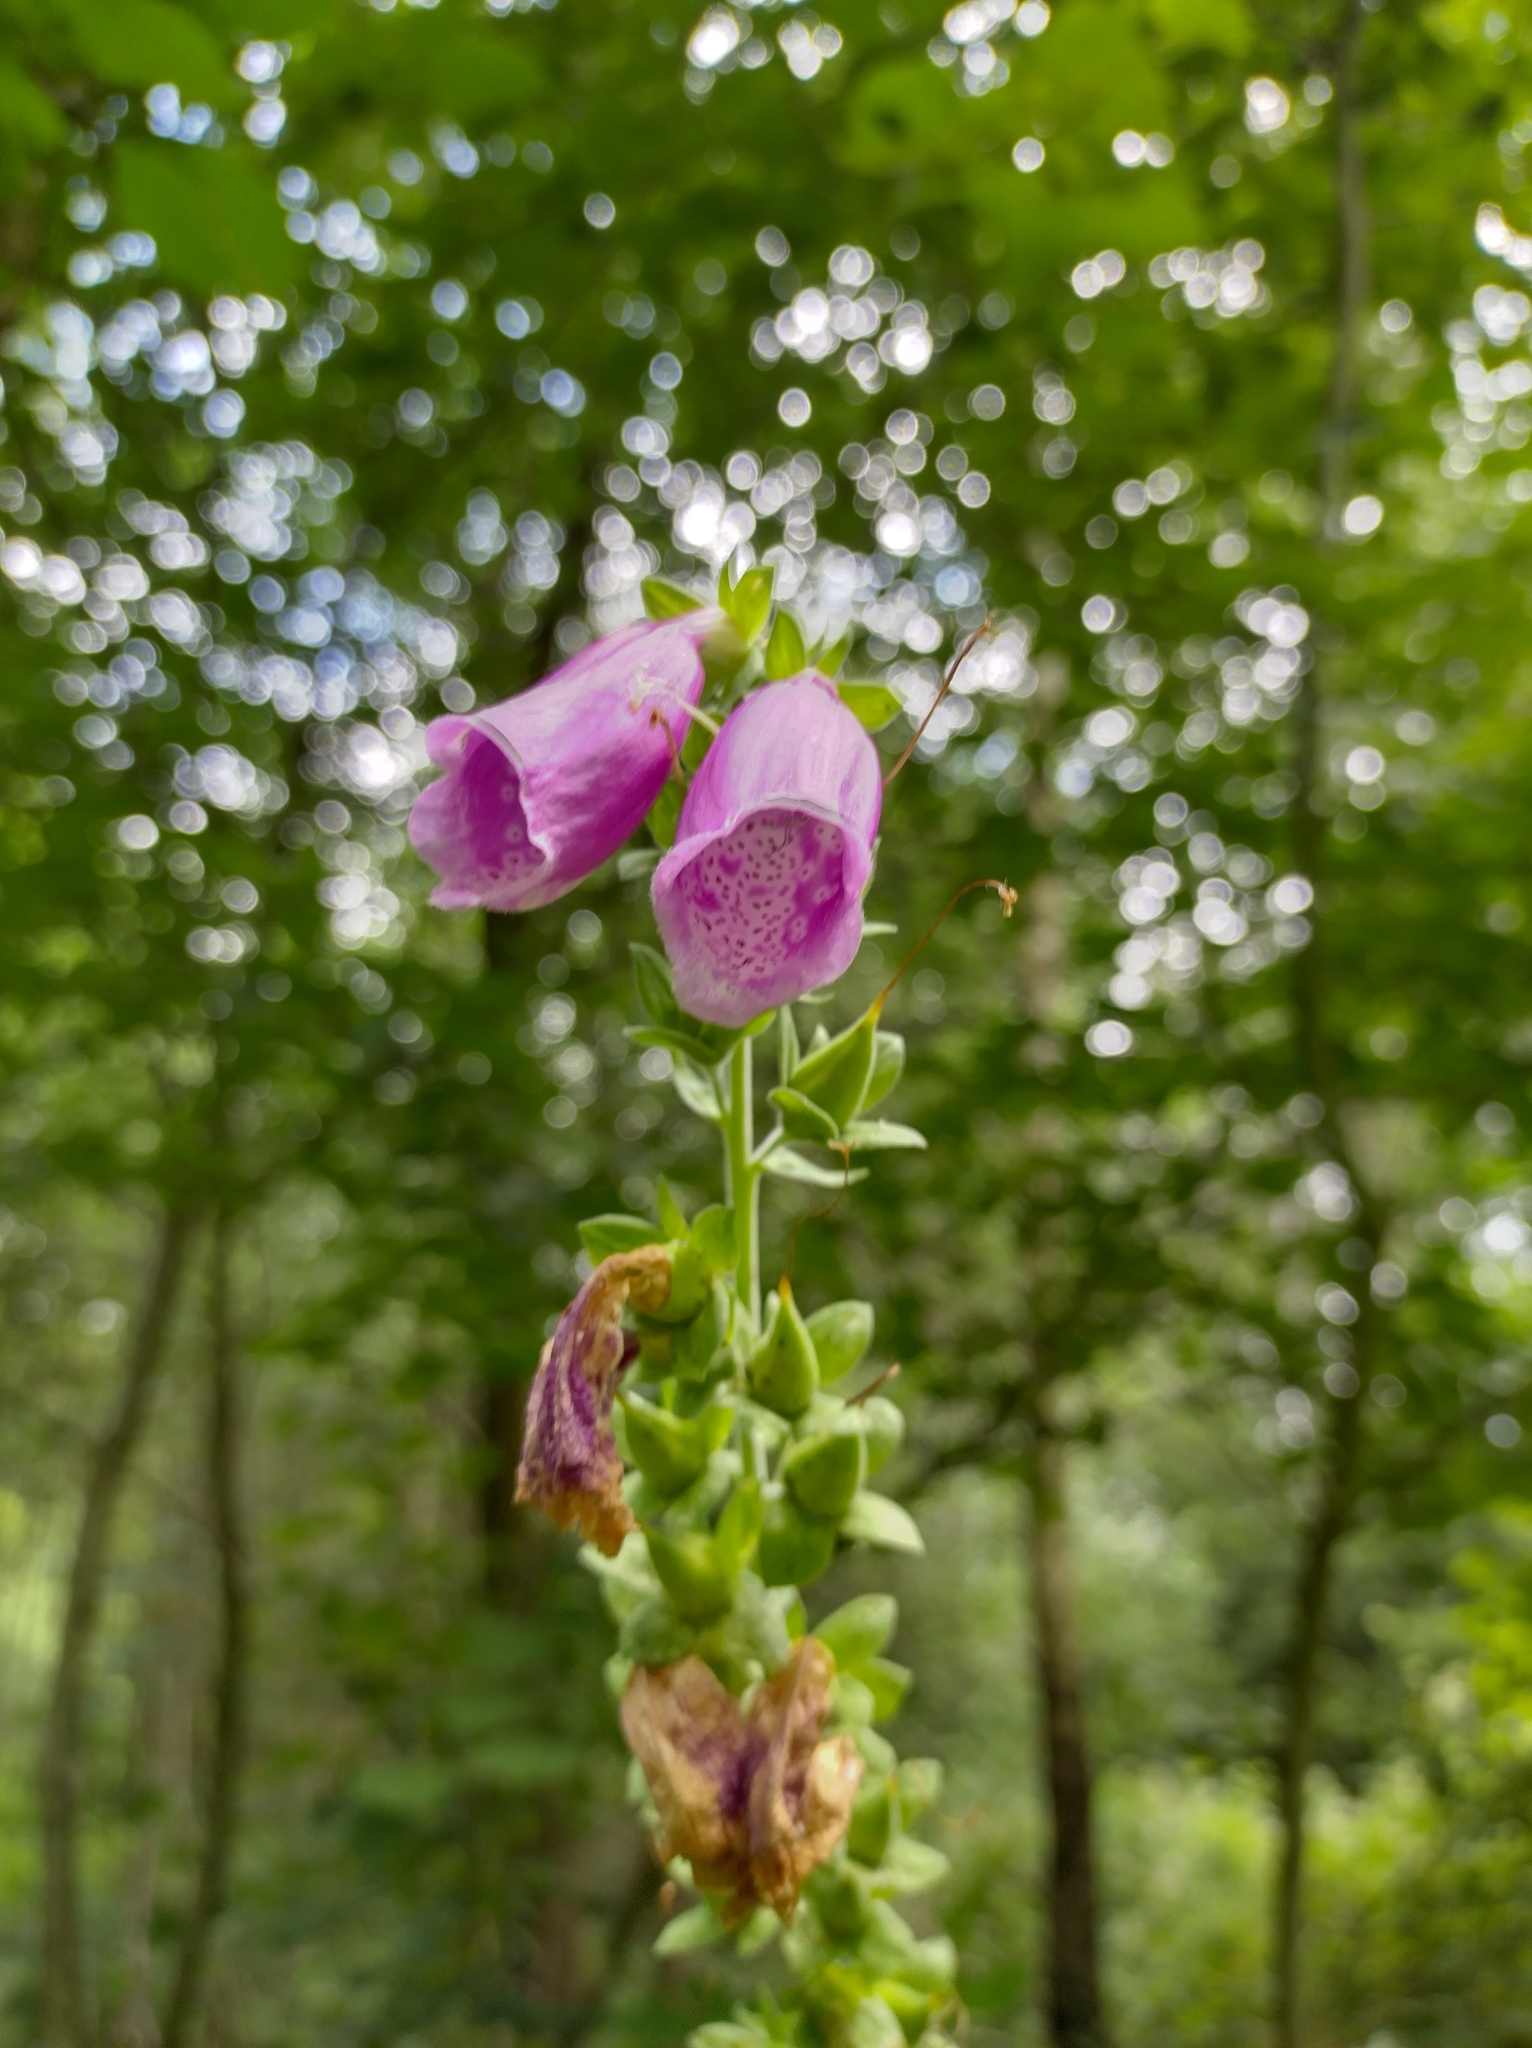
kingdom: Plantae
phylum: Tracheophyta
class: Magnoliopsida
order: Lamiales
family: Plantaginaceae
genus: Digitalis
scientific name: Digitalis purpurea
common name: Foxglove
